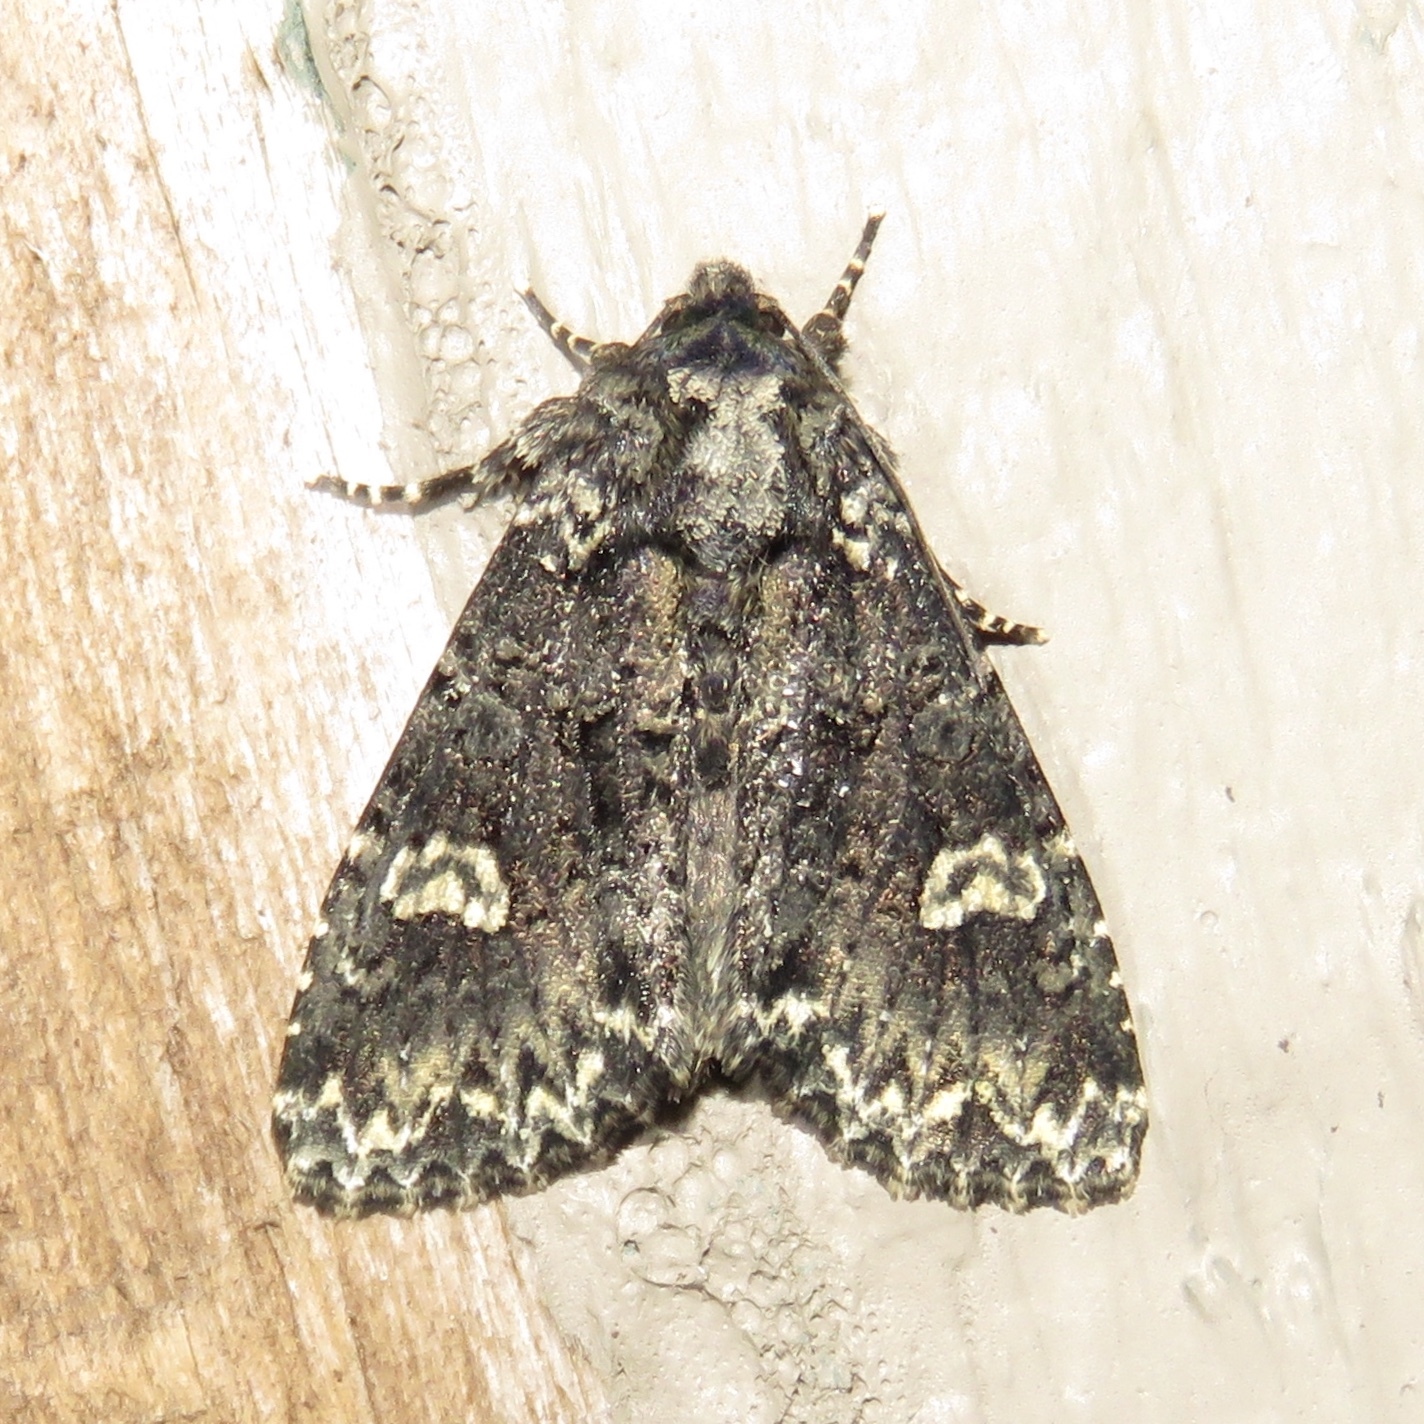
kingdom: Animalia
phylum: Arthropoda
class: Insecta
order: Lepidoptera
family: Noctuidae
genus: Melanchra
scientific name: Melanchra adjuncta
